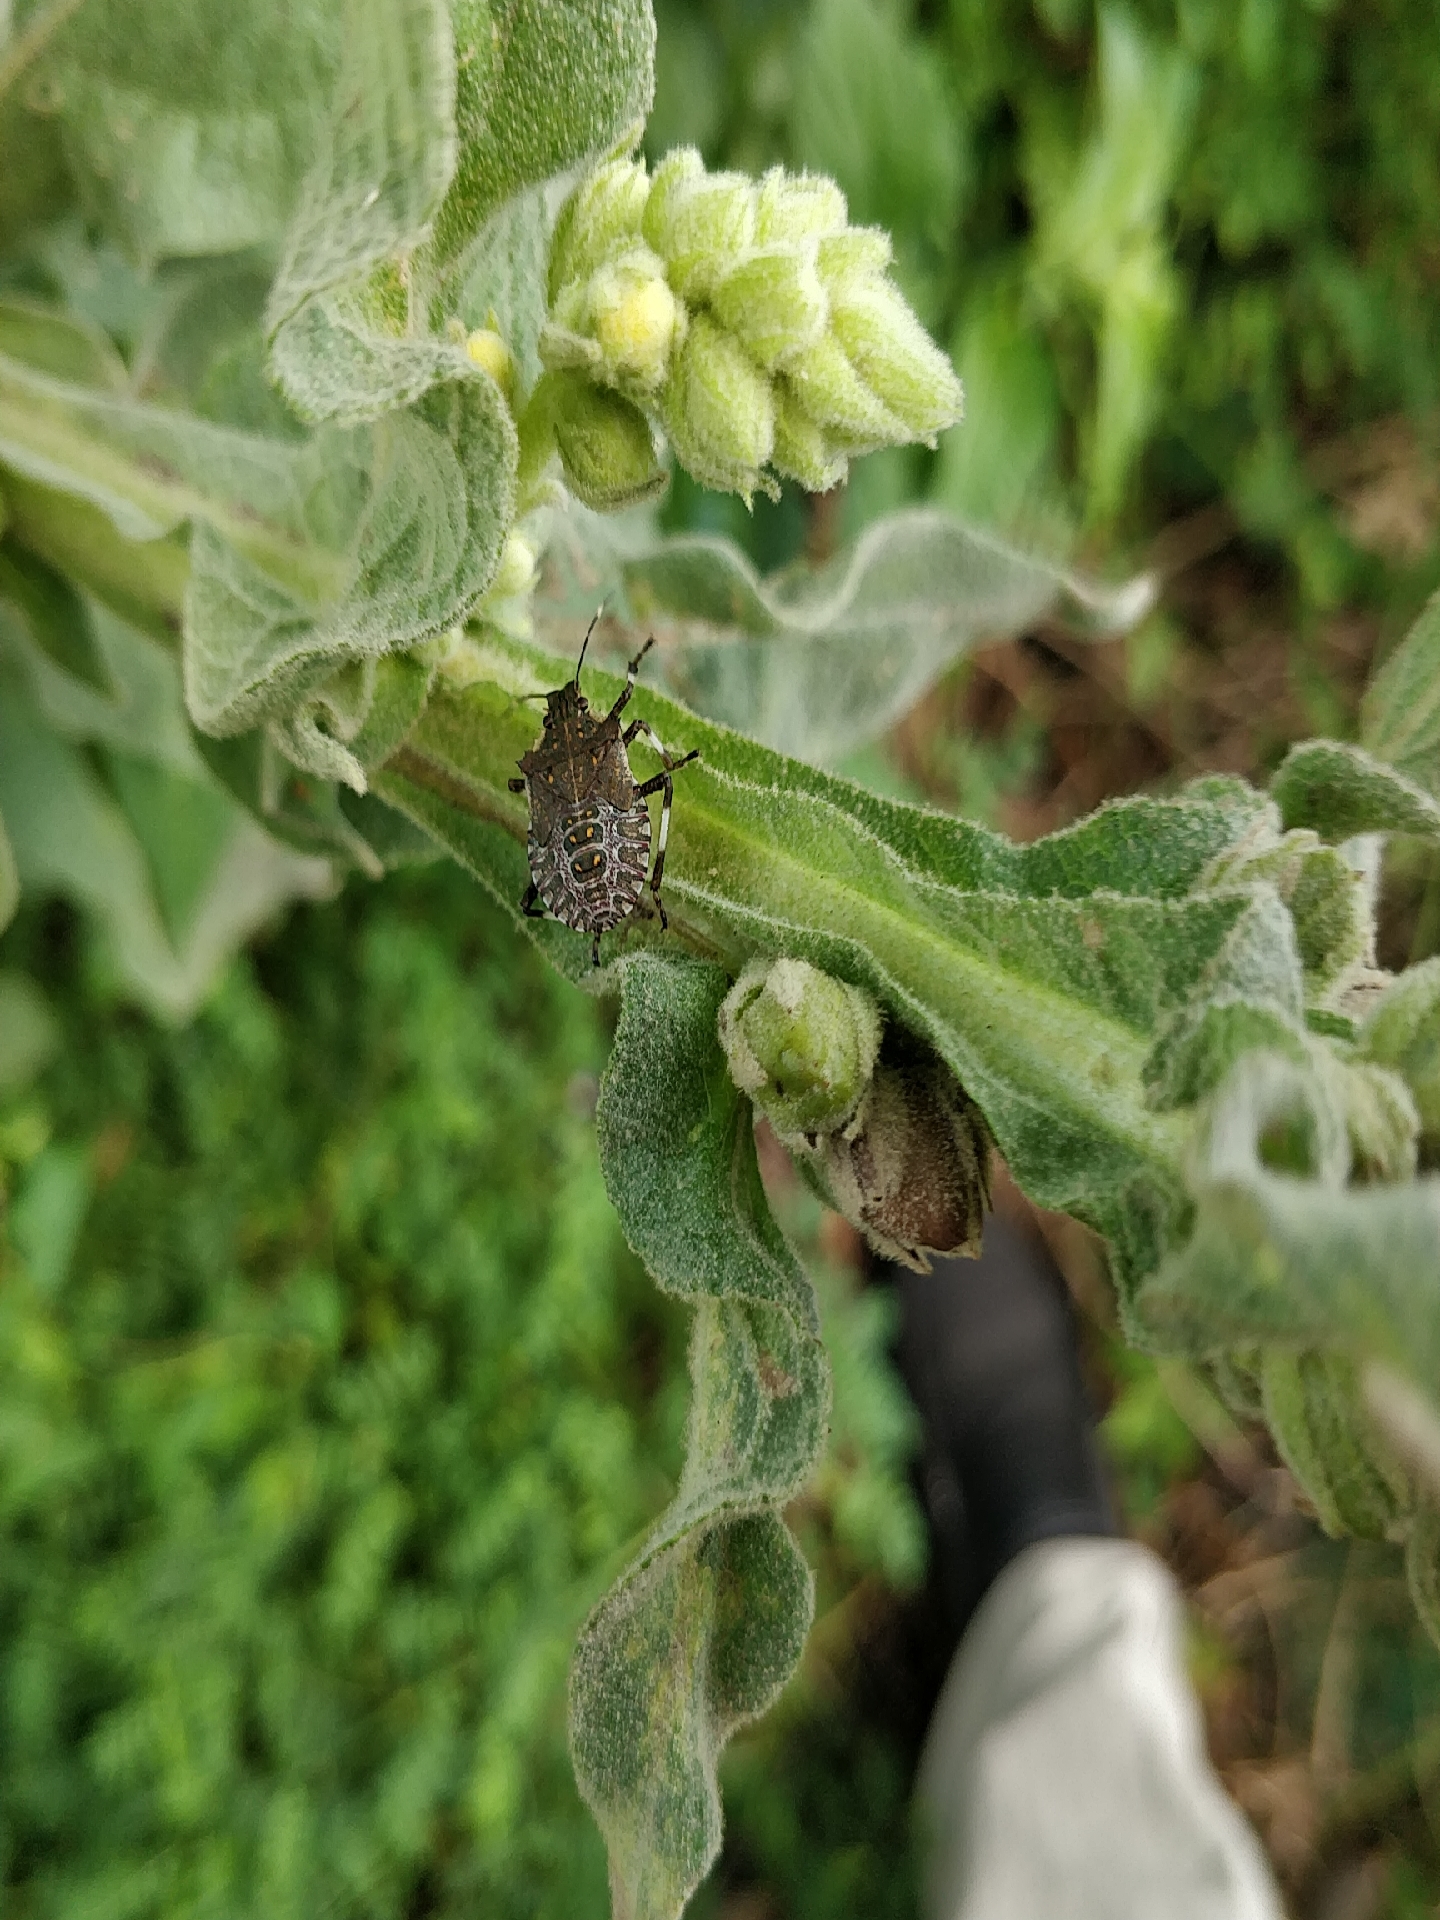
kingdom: Animalia
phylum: Arthropoda
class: Insecta
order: Hemiptera
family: Pentatomidae
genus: Halyomorpha
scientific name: Halyomorpha halys
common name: Brown marmorated stink bug
